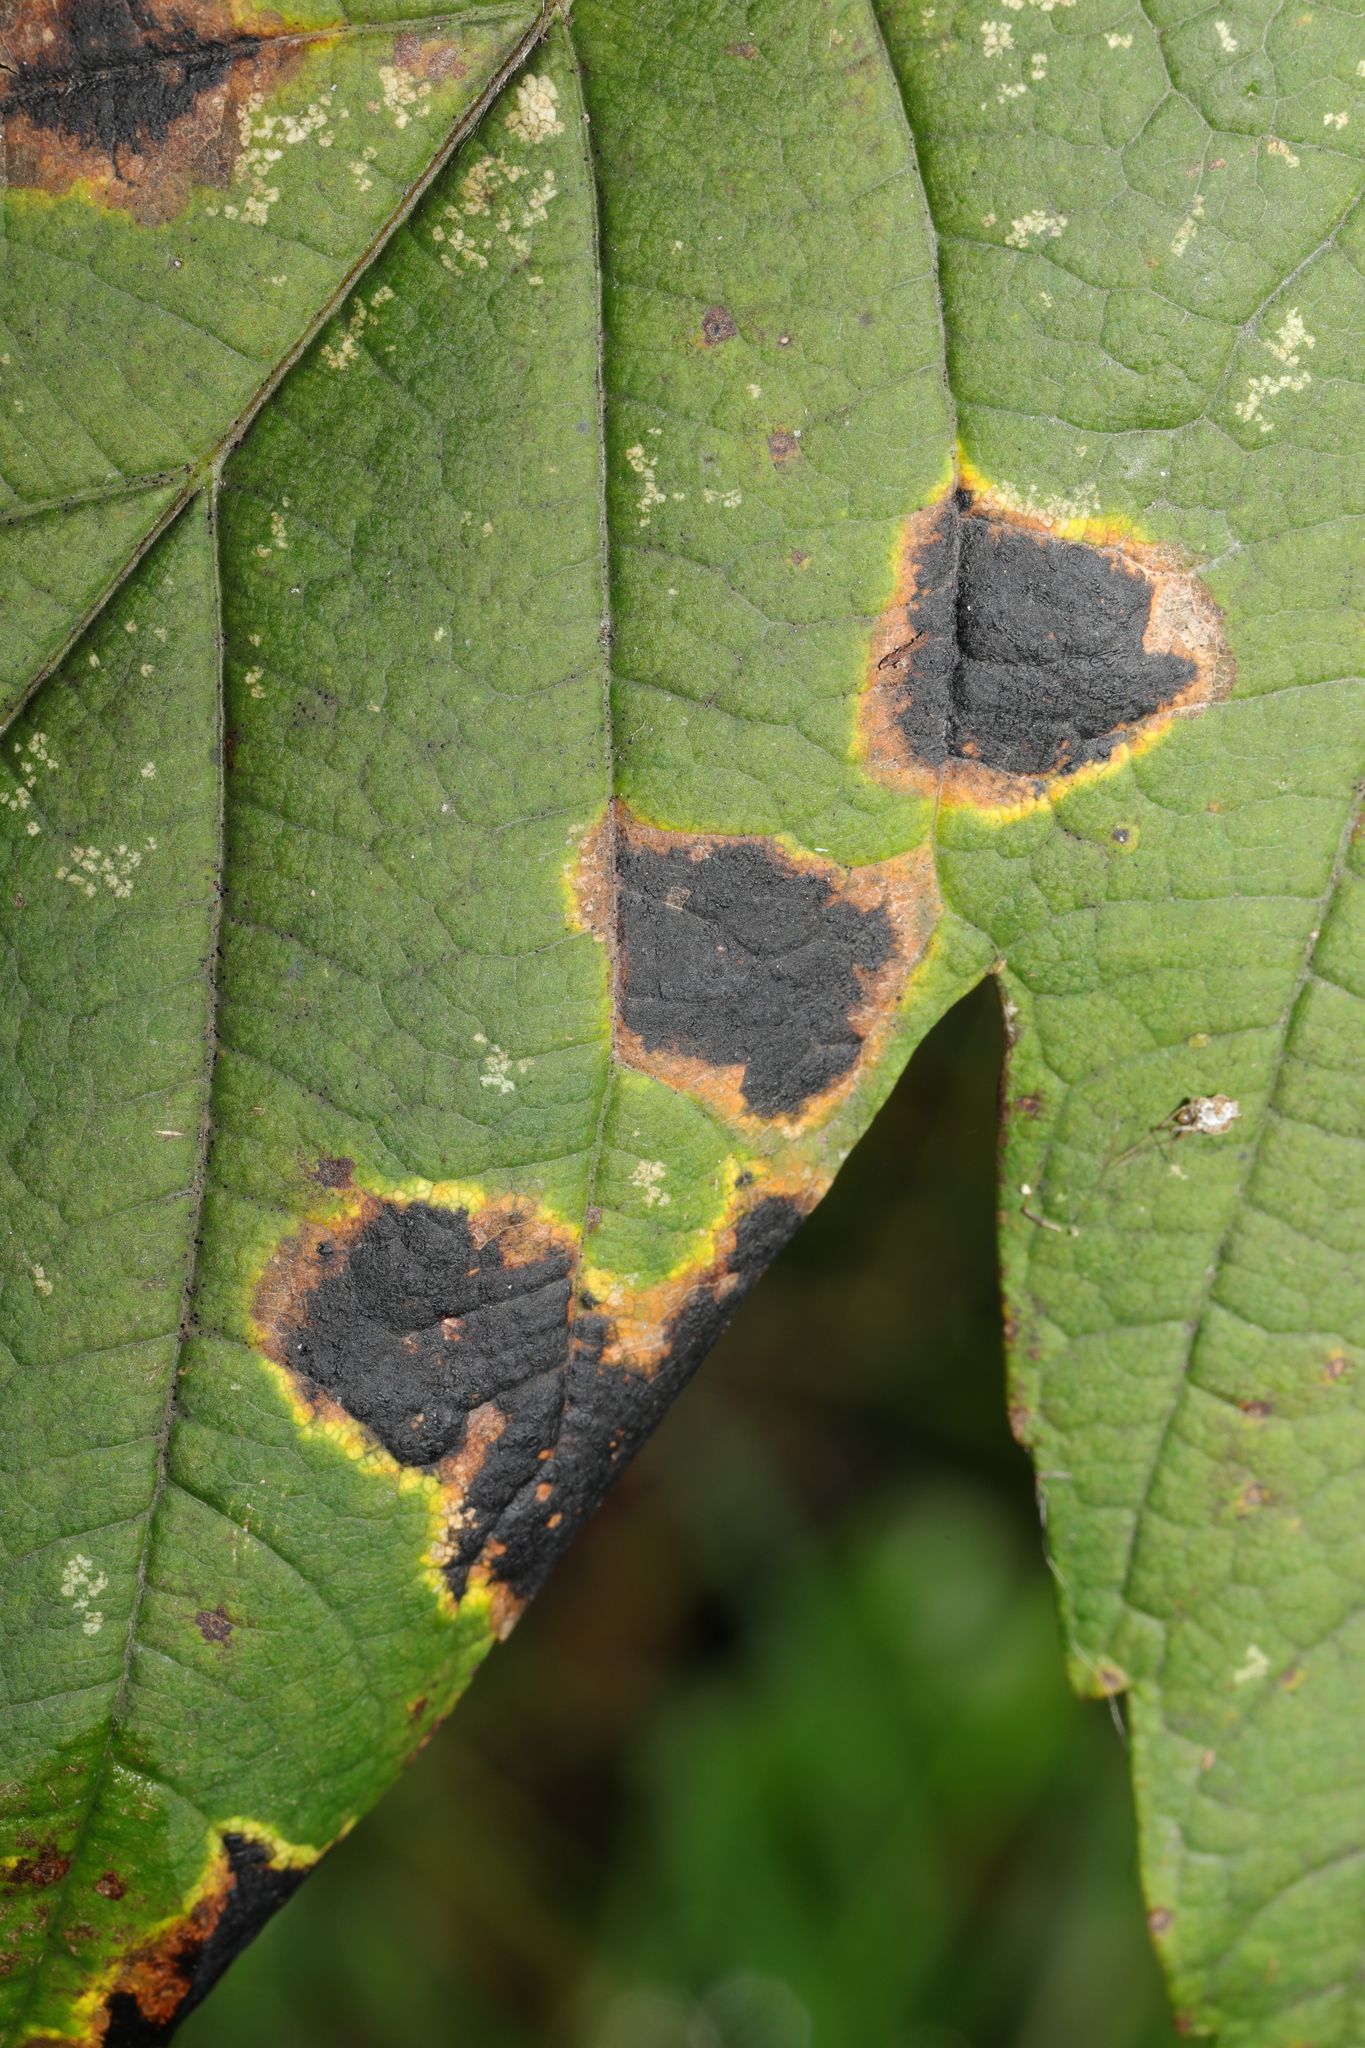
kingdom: Fungi
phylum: Ascomycota
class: Leotiomycetes
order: Rhytismatales
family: Rhytismataceae
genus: Rhytisma
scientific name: Rhytisma acerinum
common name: European tar spot
